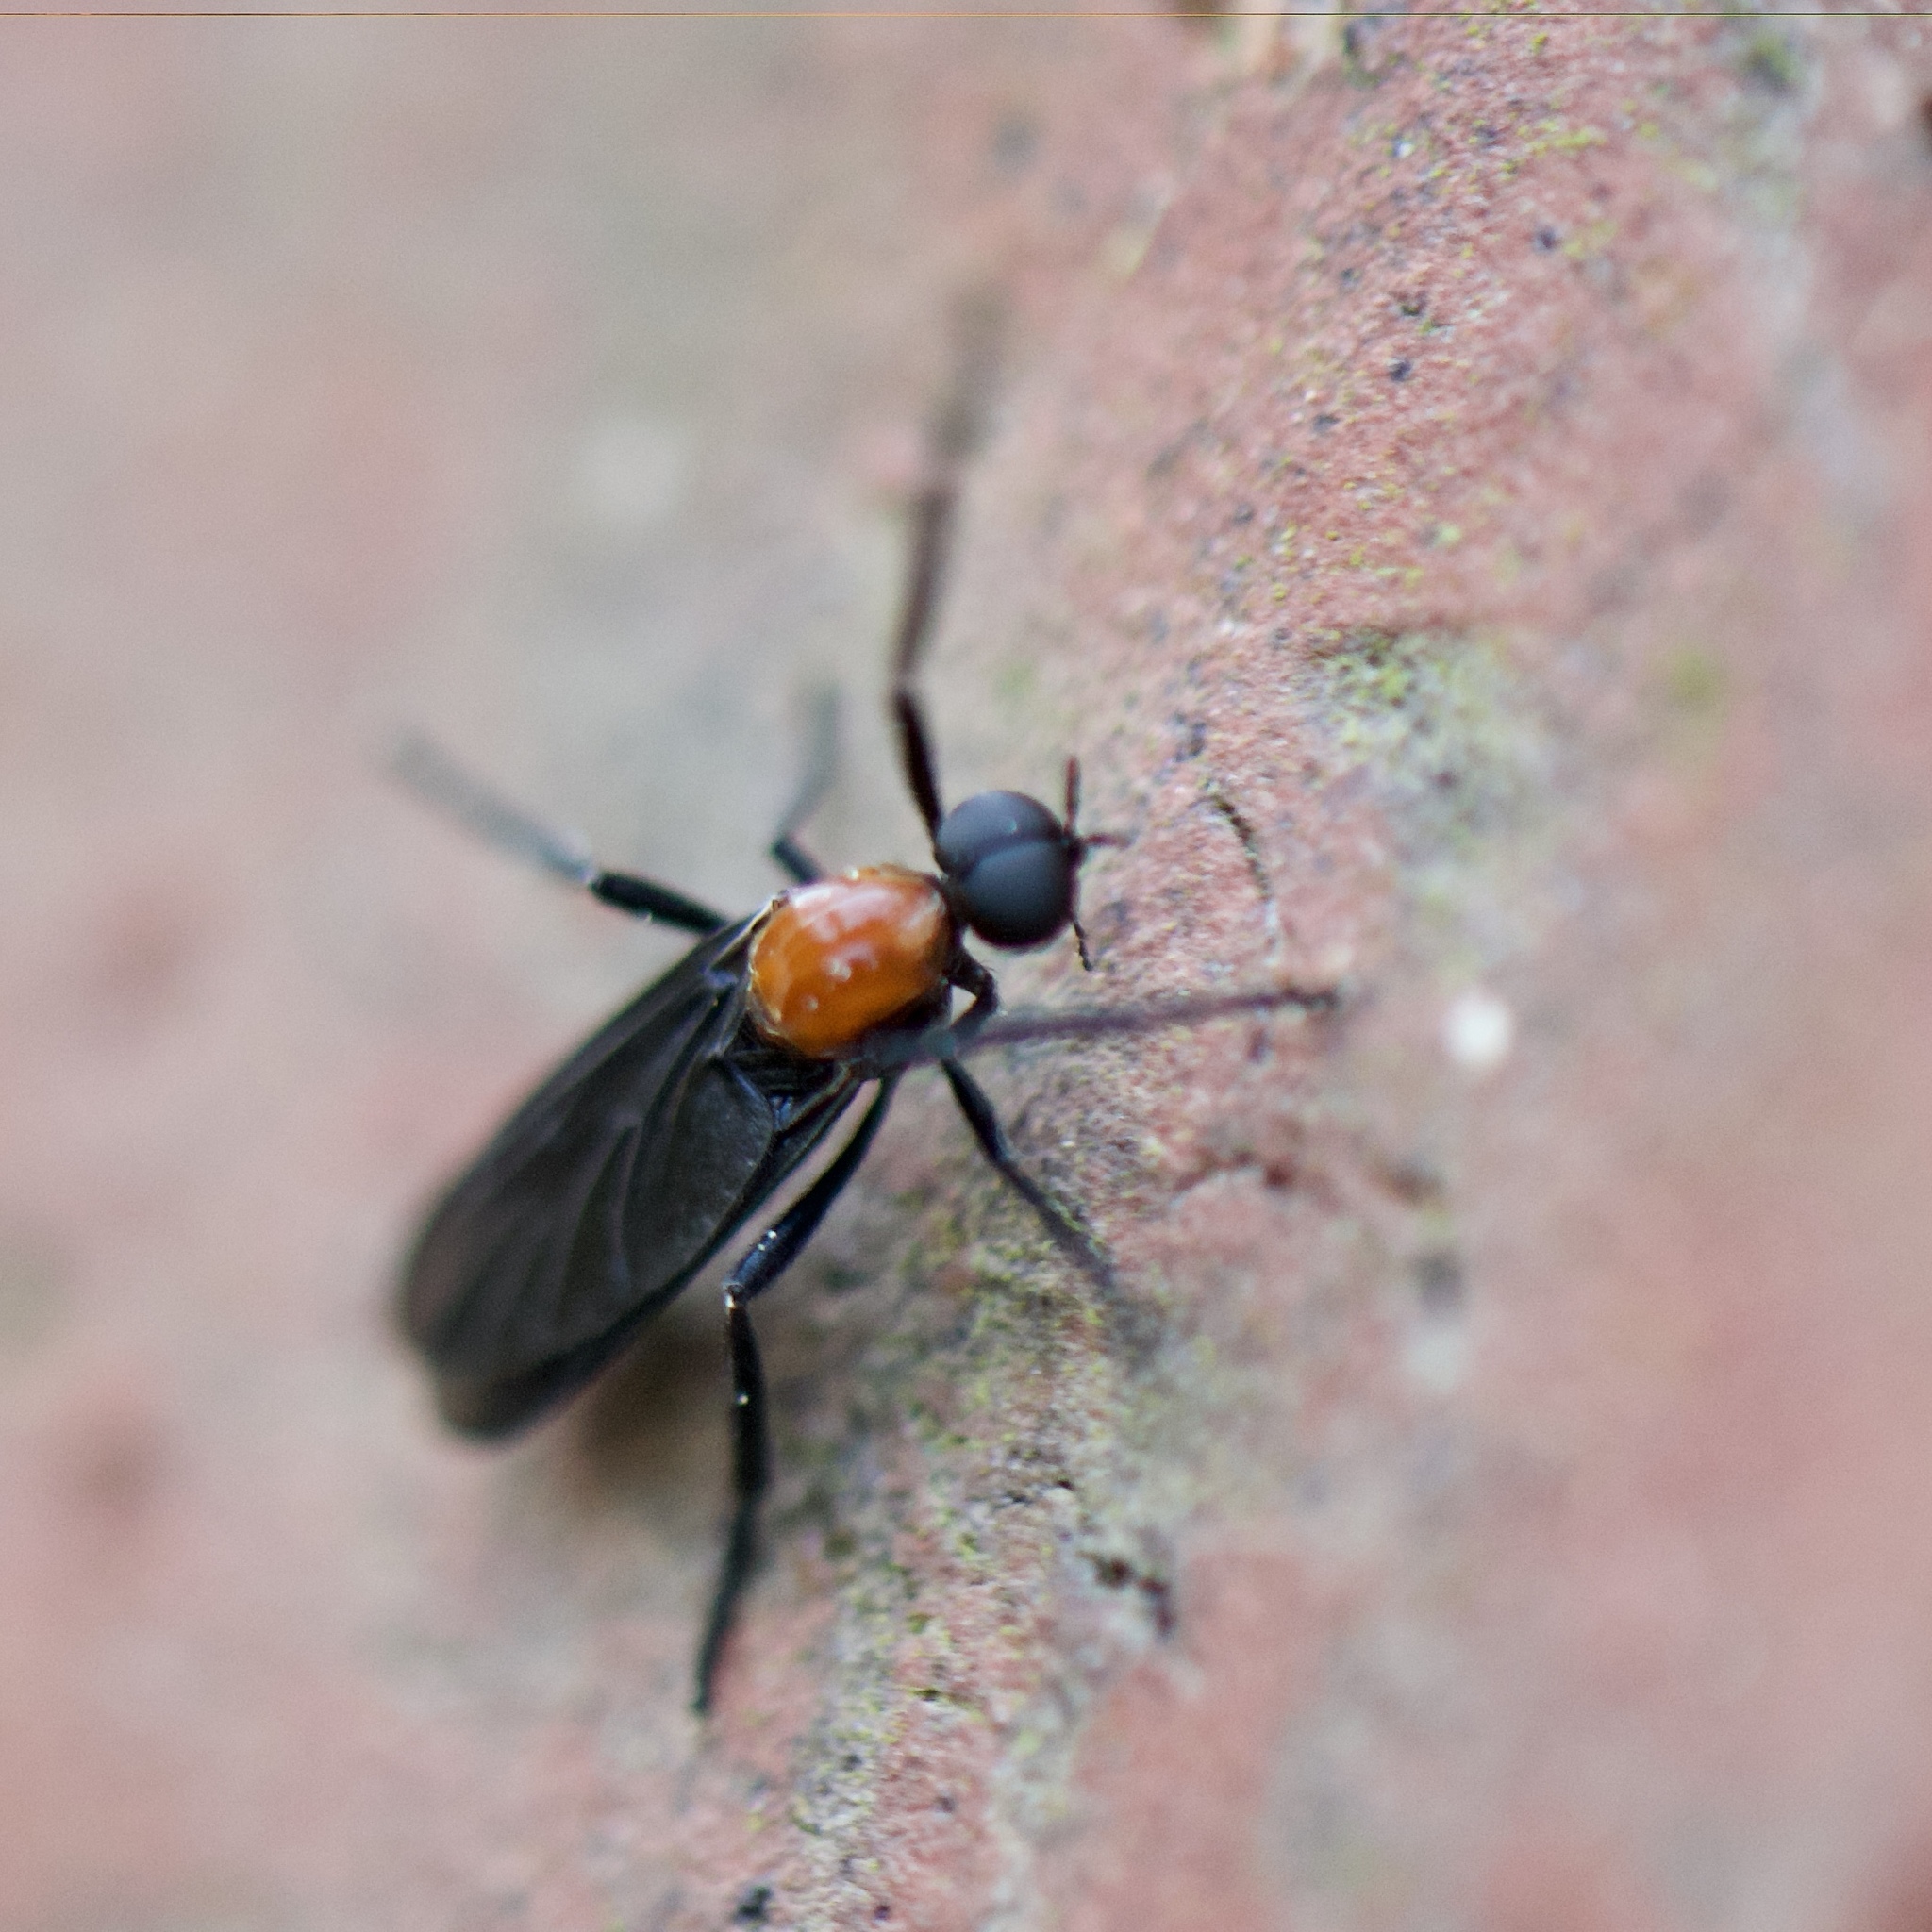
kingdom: Animalia
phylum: Arthropoda
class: Insecta
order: Diptera
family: Bibionidae
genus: Plecia
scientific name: Plecia nearctica
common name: March fly
